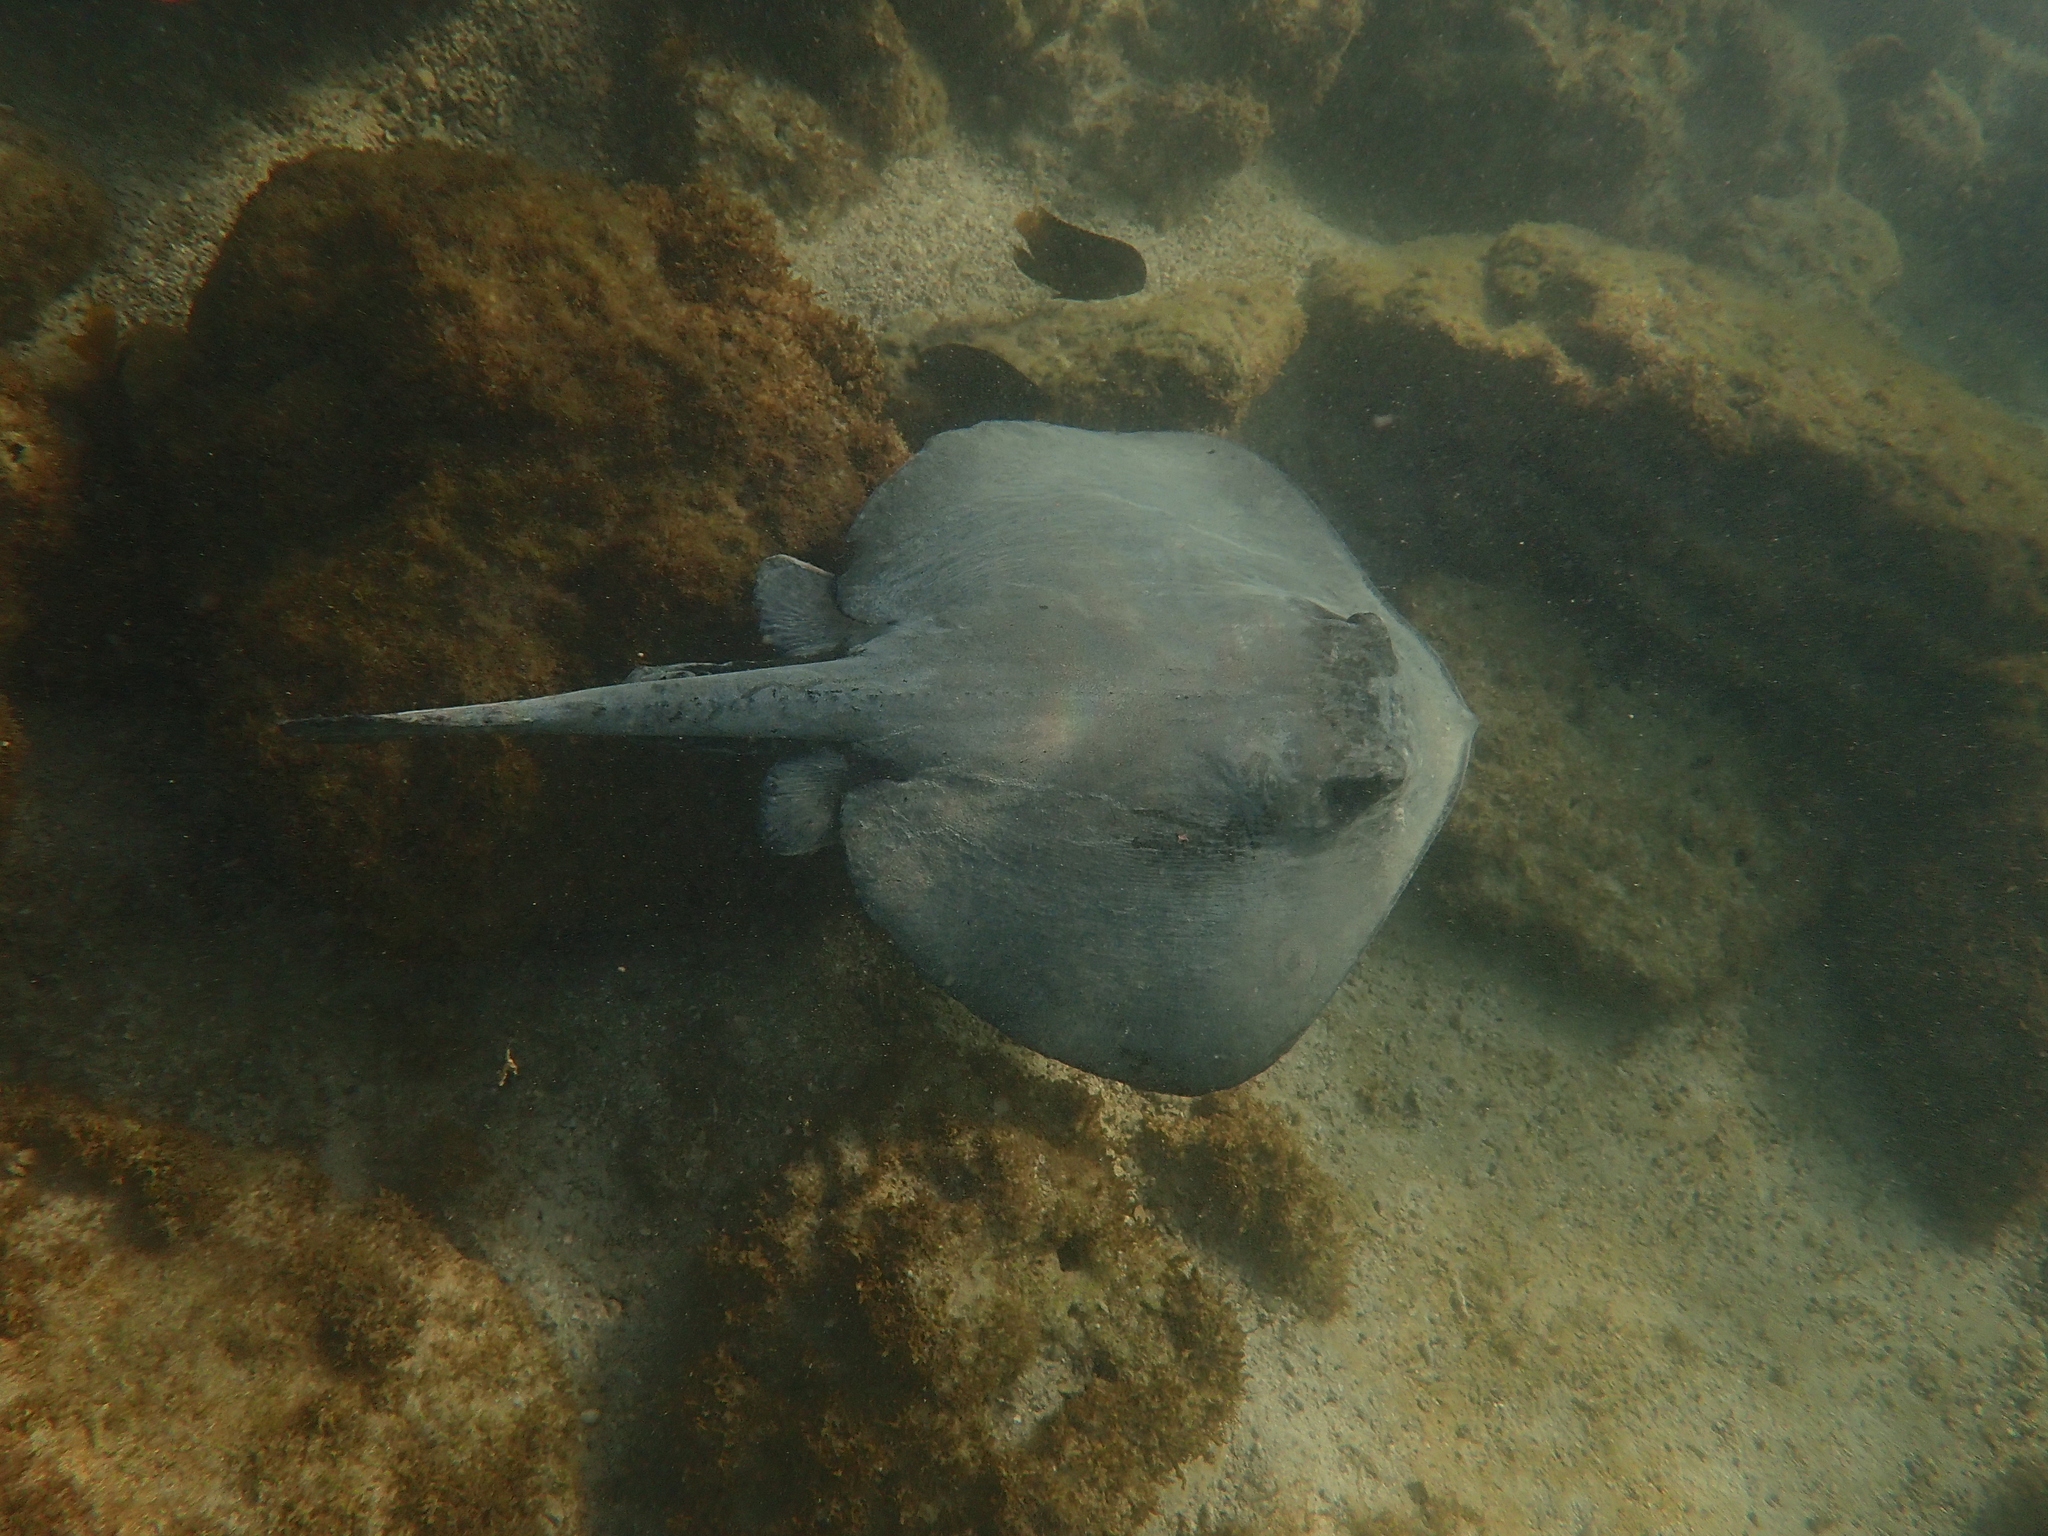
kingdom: Animalia
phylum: Chordata
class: Elasmobranchii
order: Myliobatiformes
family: Dasyatidae
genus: Hypanus
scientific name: Hypanus dipterurus
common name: Diamond stingray
